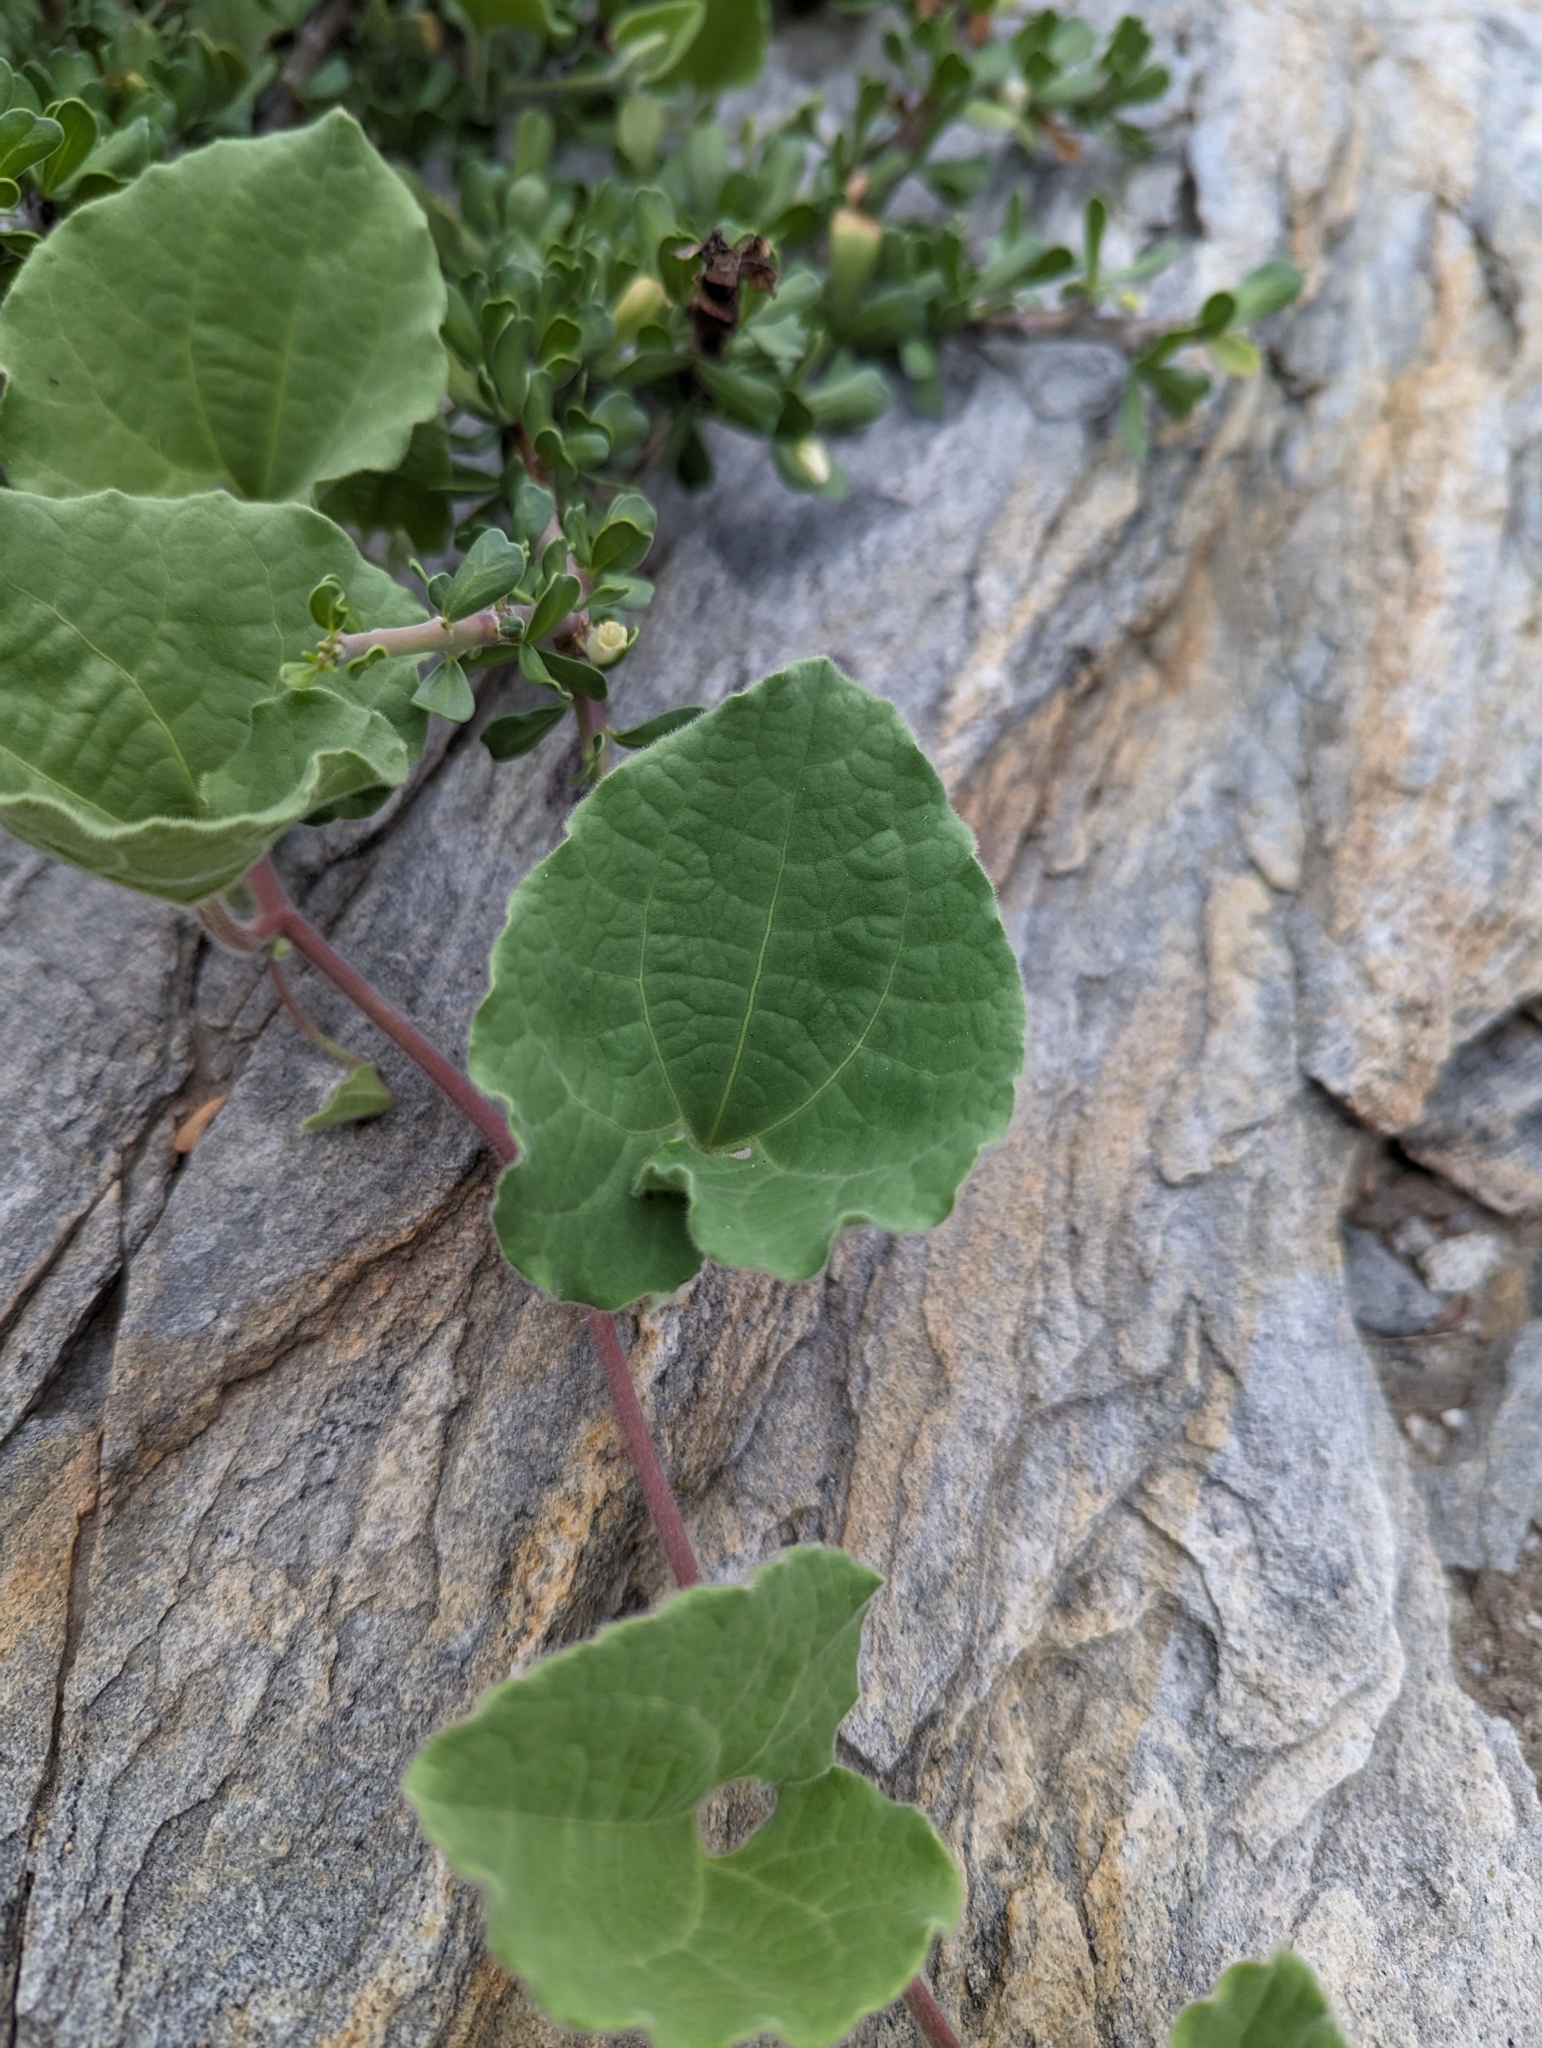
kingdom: Plantae
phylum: Tracheophyta
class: Magnoliopsida
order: Piperales
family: Aristolochiaceae
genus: Aristolochia
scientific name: Aristolochia monticola
